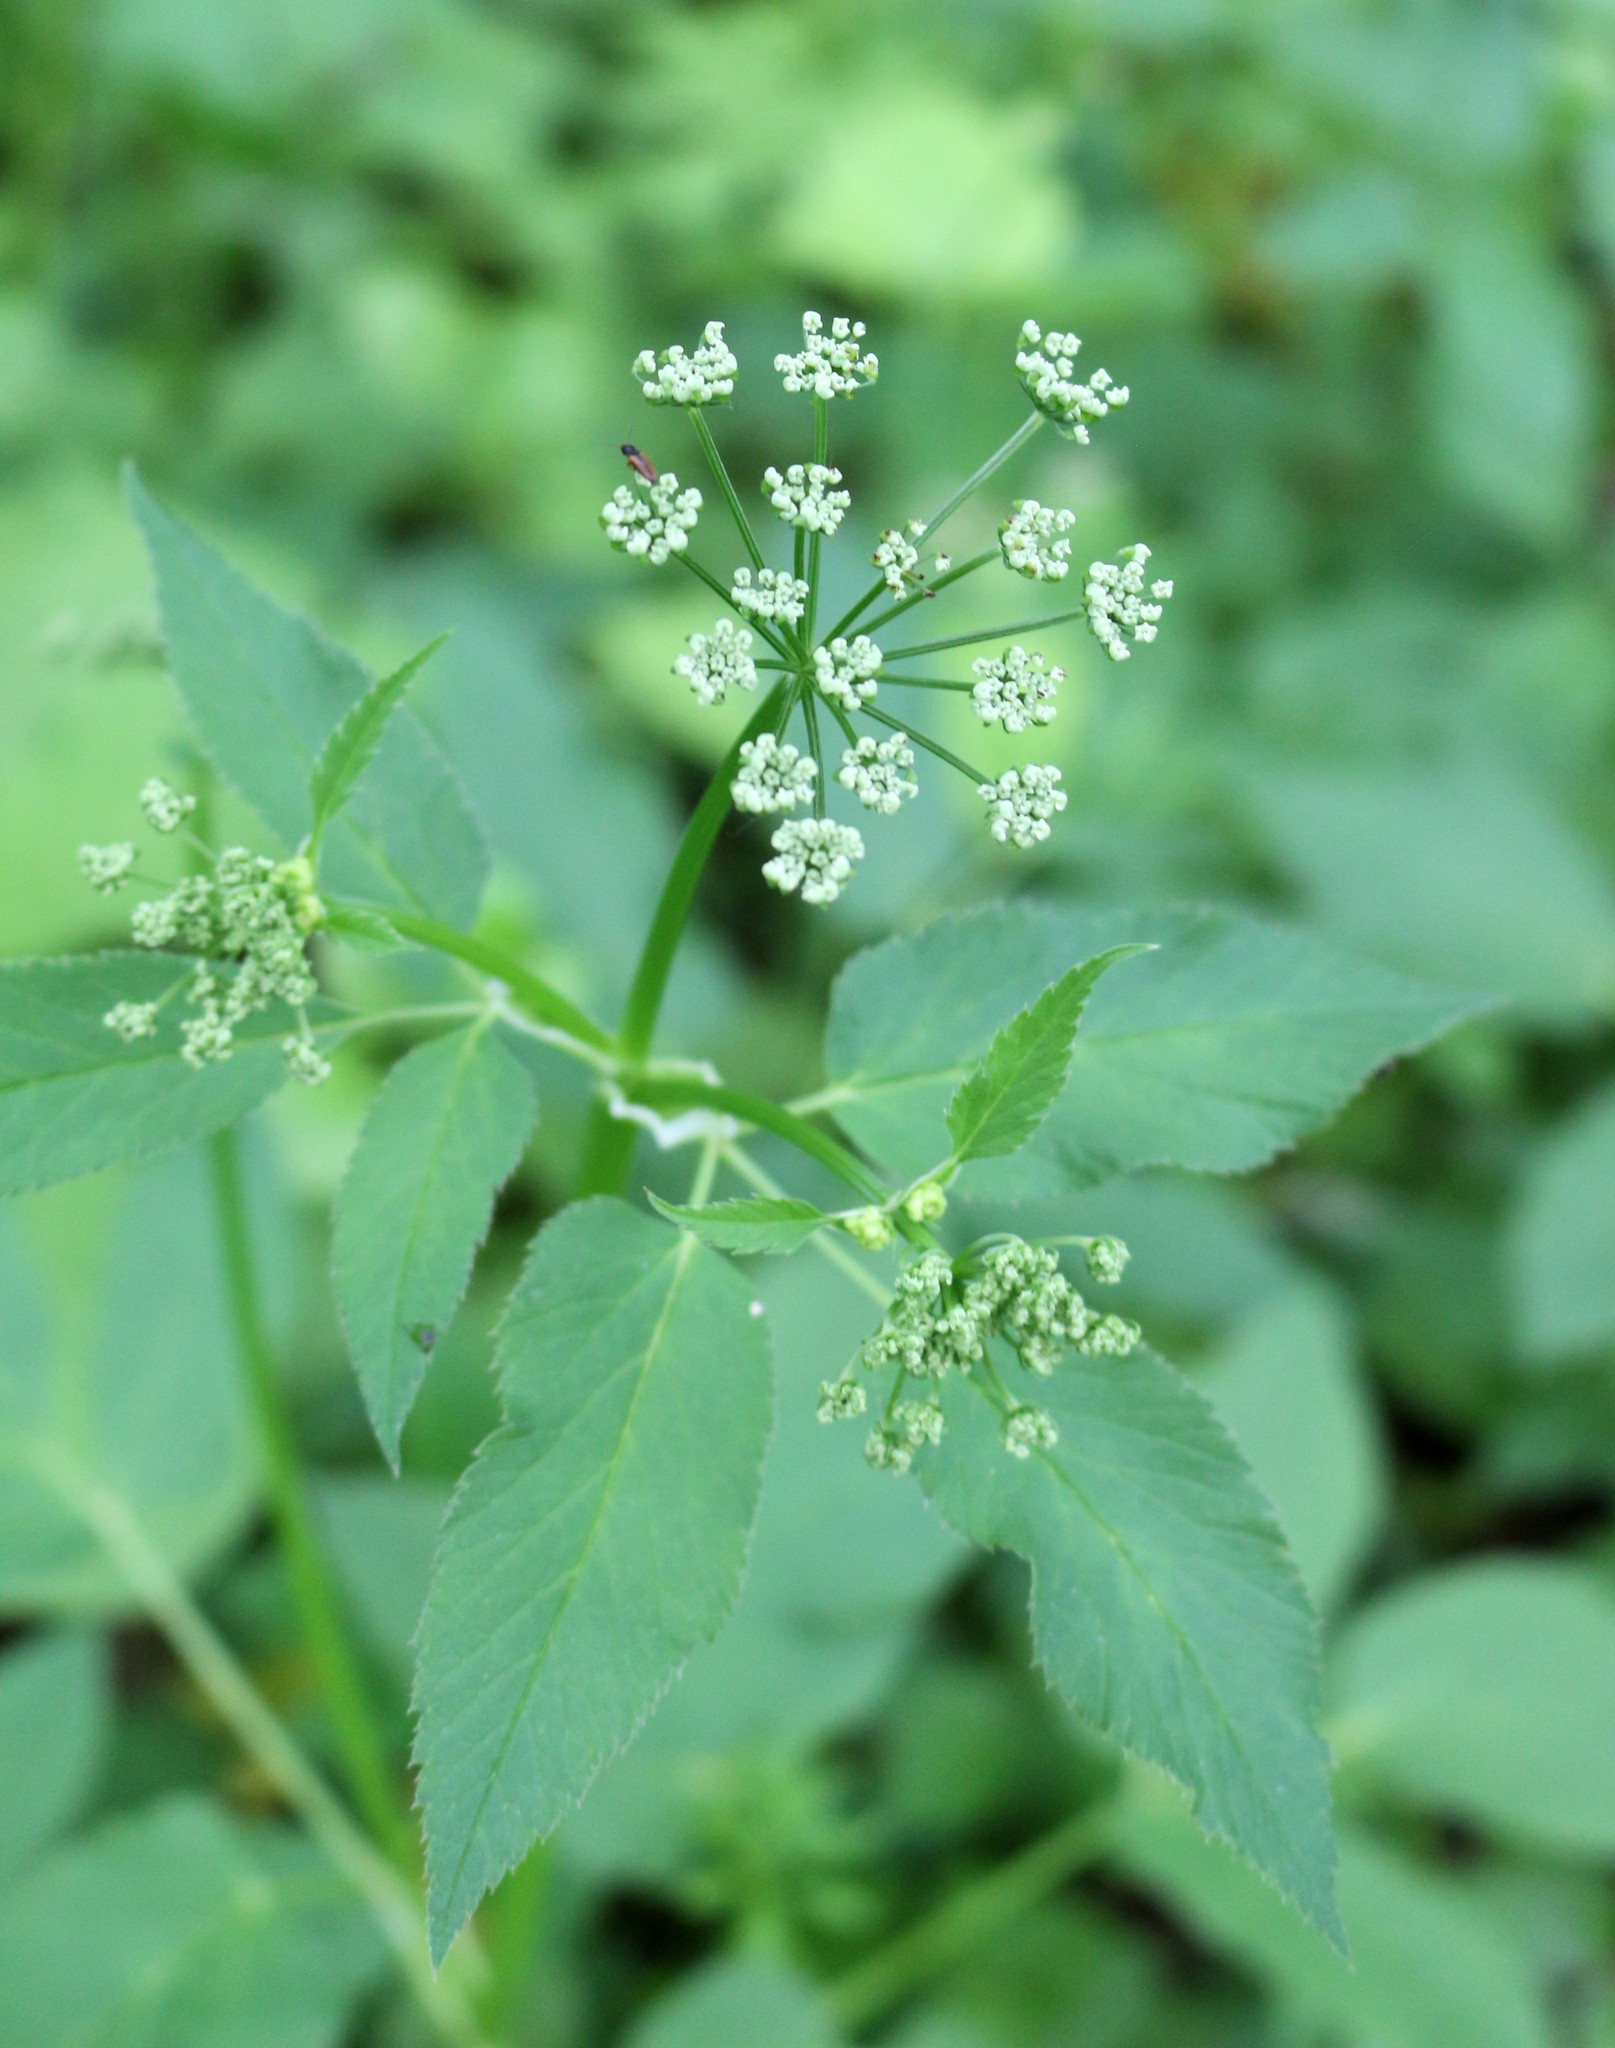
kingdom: Plantae
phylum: Tracheophyta
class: Magnoliopsida
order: Apiales
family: Apiaceae
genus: Aegopodium
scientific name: Aegopodium podagraria
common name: Ground-elder
